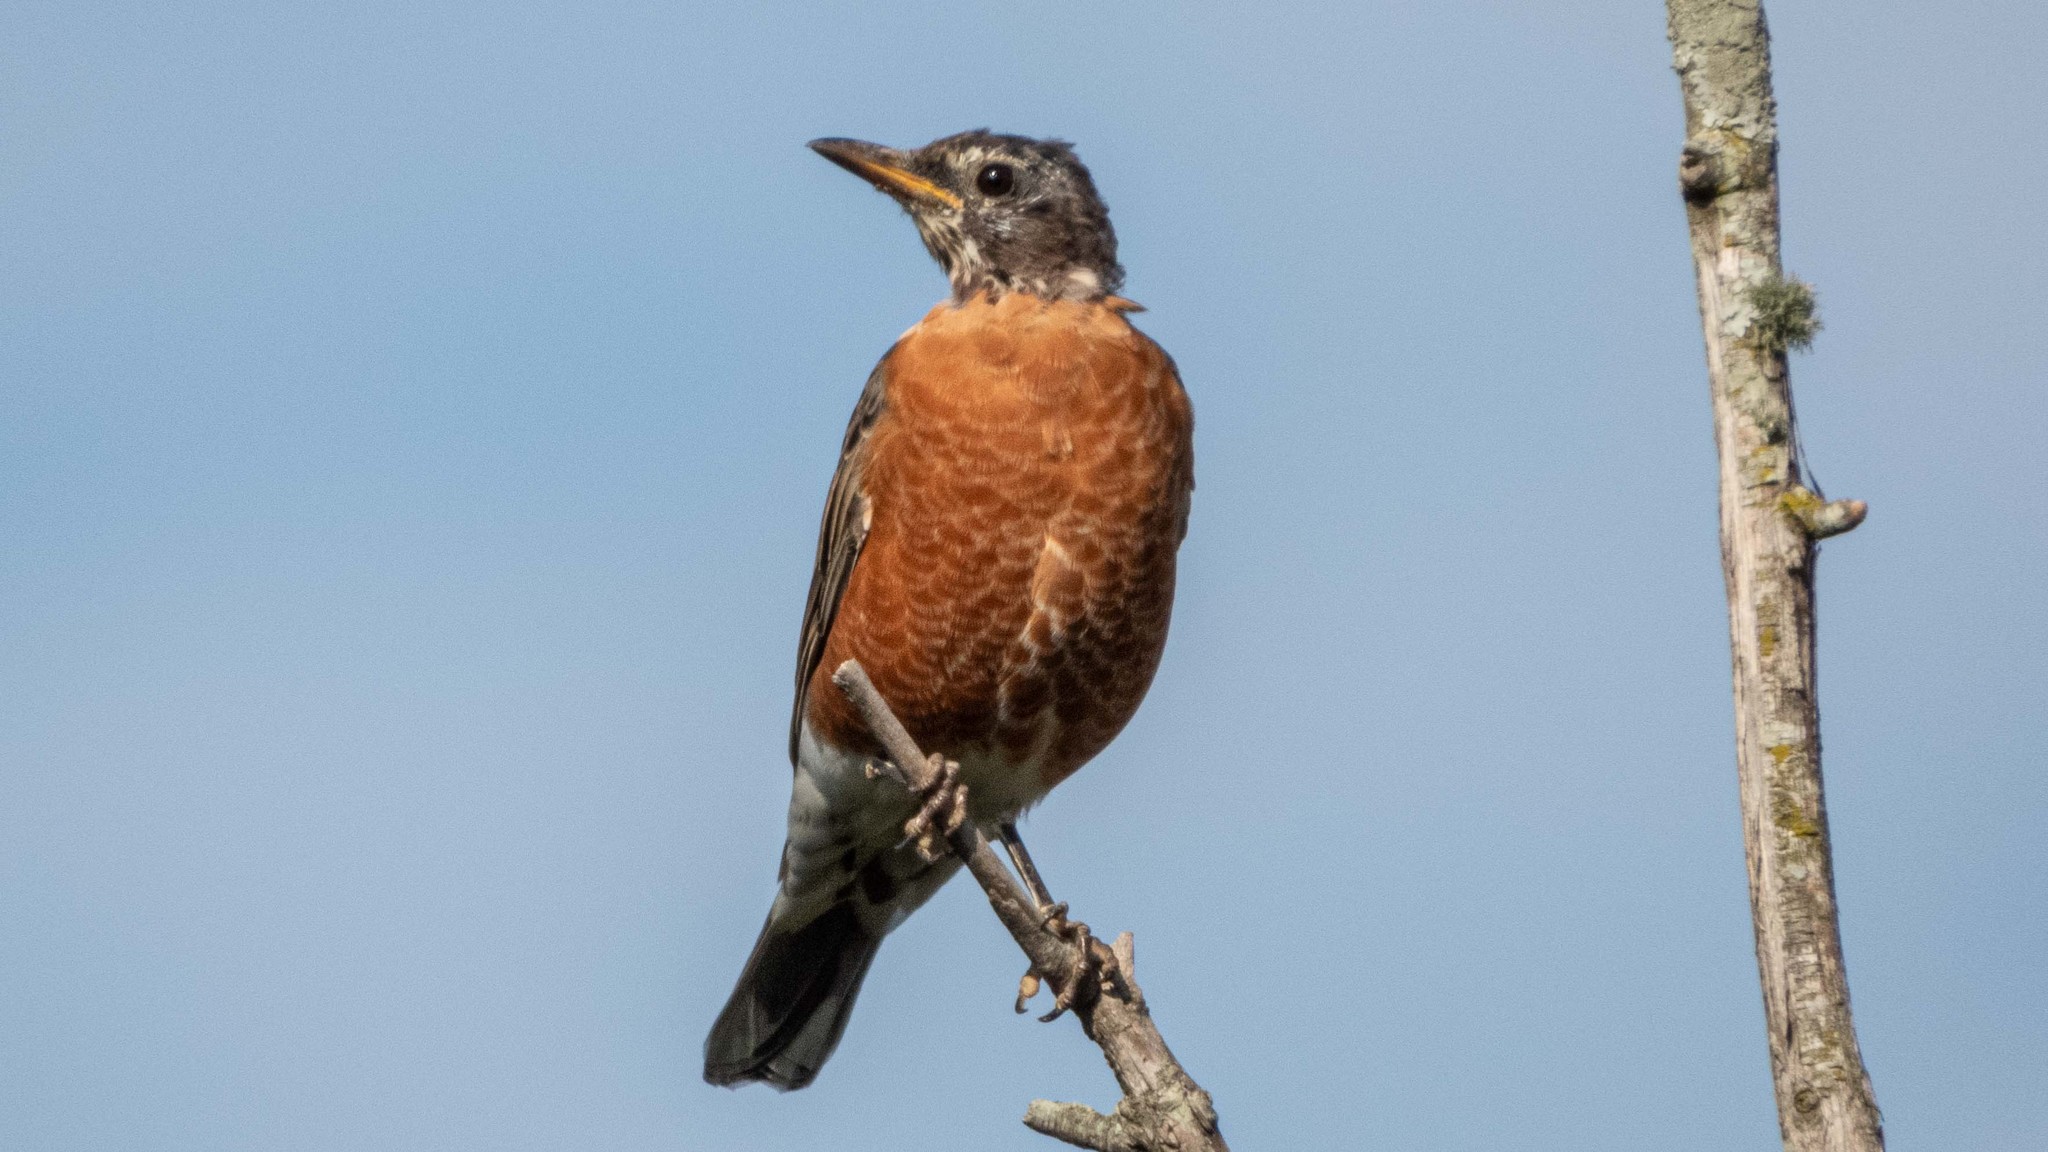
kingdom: Animalia
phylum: Chordata
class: Aves
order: Passeriformes
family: Turdidae
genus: Turdus
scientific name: Turdus migratorius
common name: American robin
